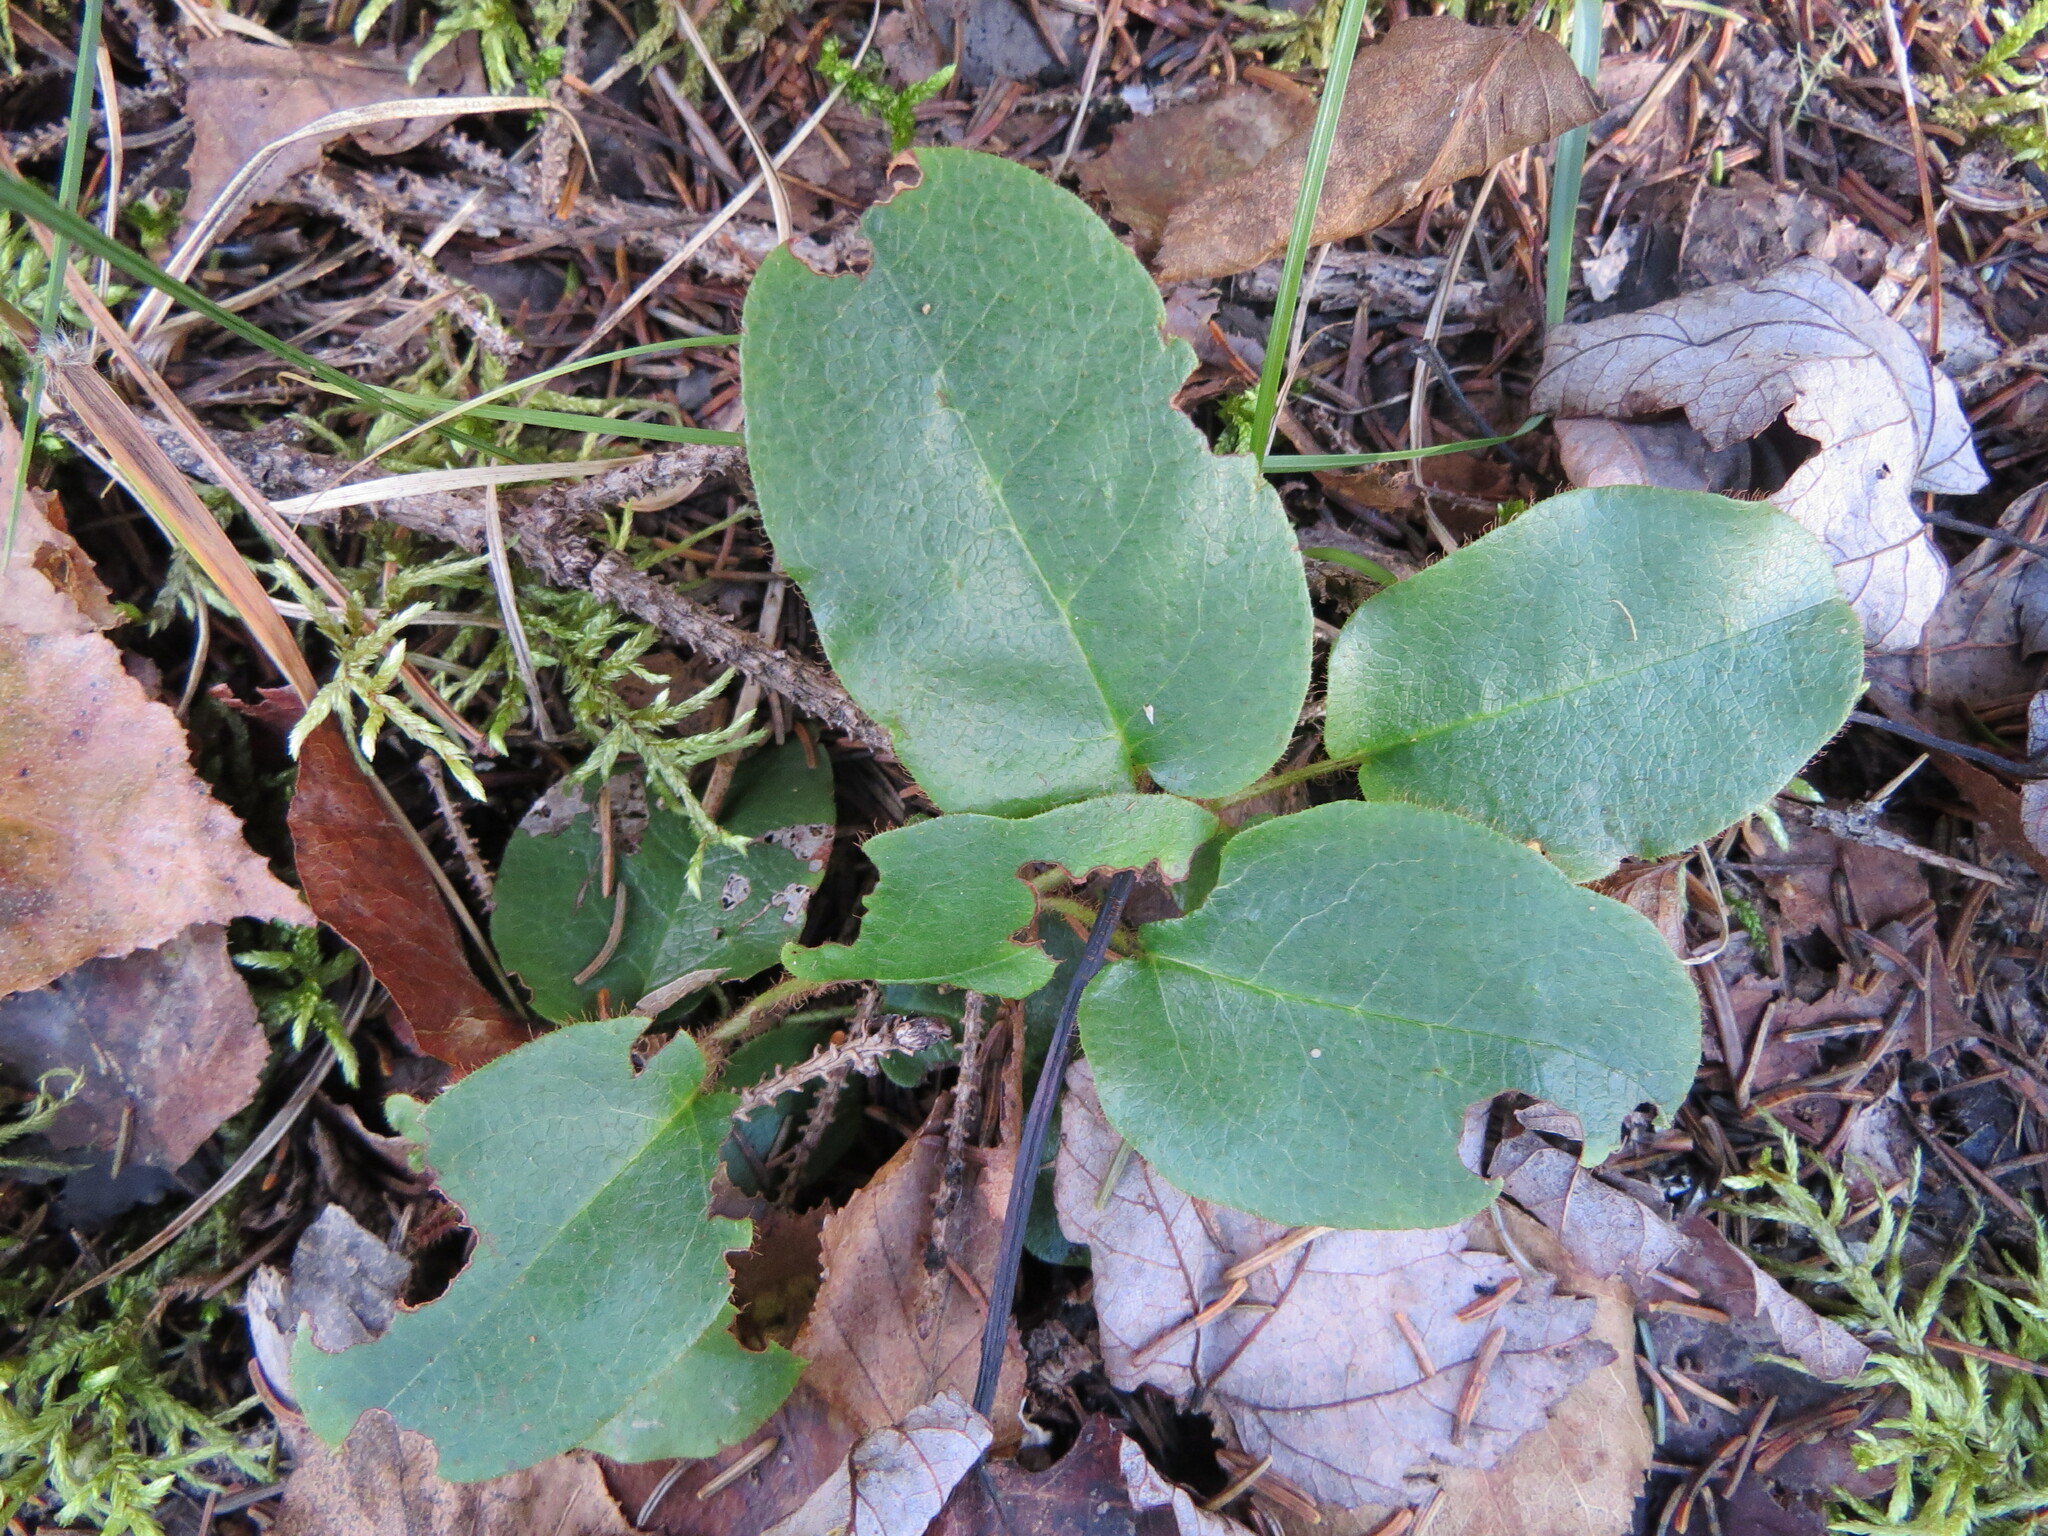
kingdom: Plantae
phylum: Tracheophyta
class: Magnoliopsida
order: Ericales
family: Ericaceae
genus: Epigaea
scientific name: Epigaea repens
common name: Gravelroot
